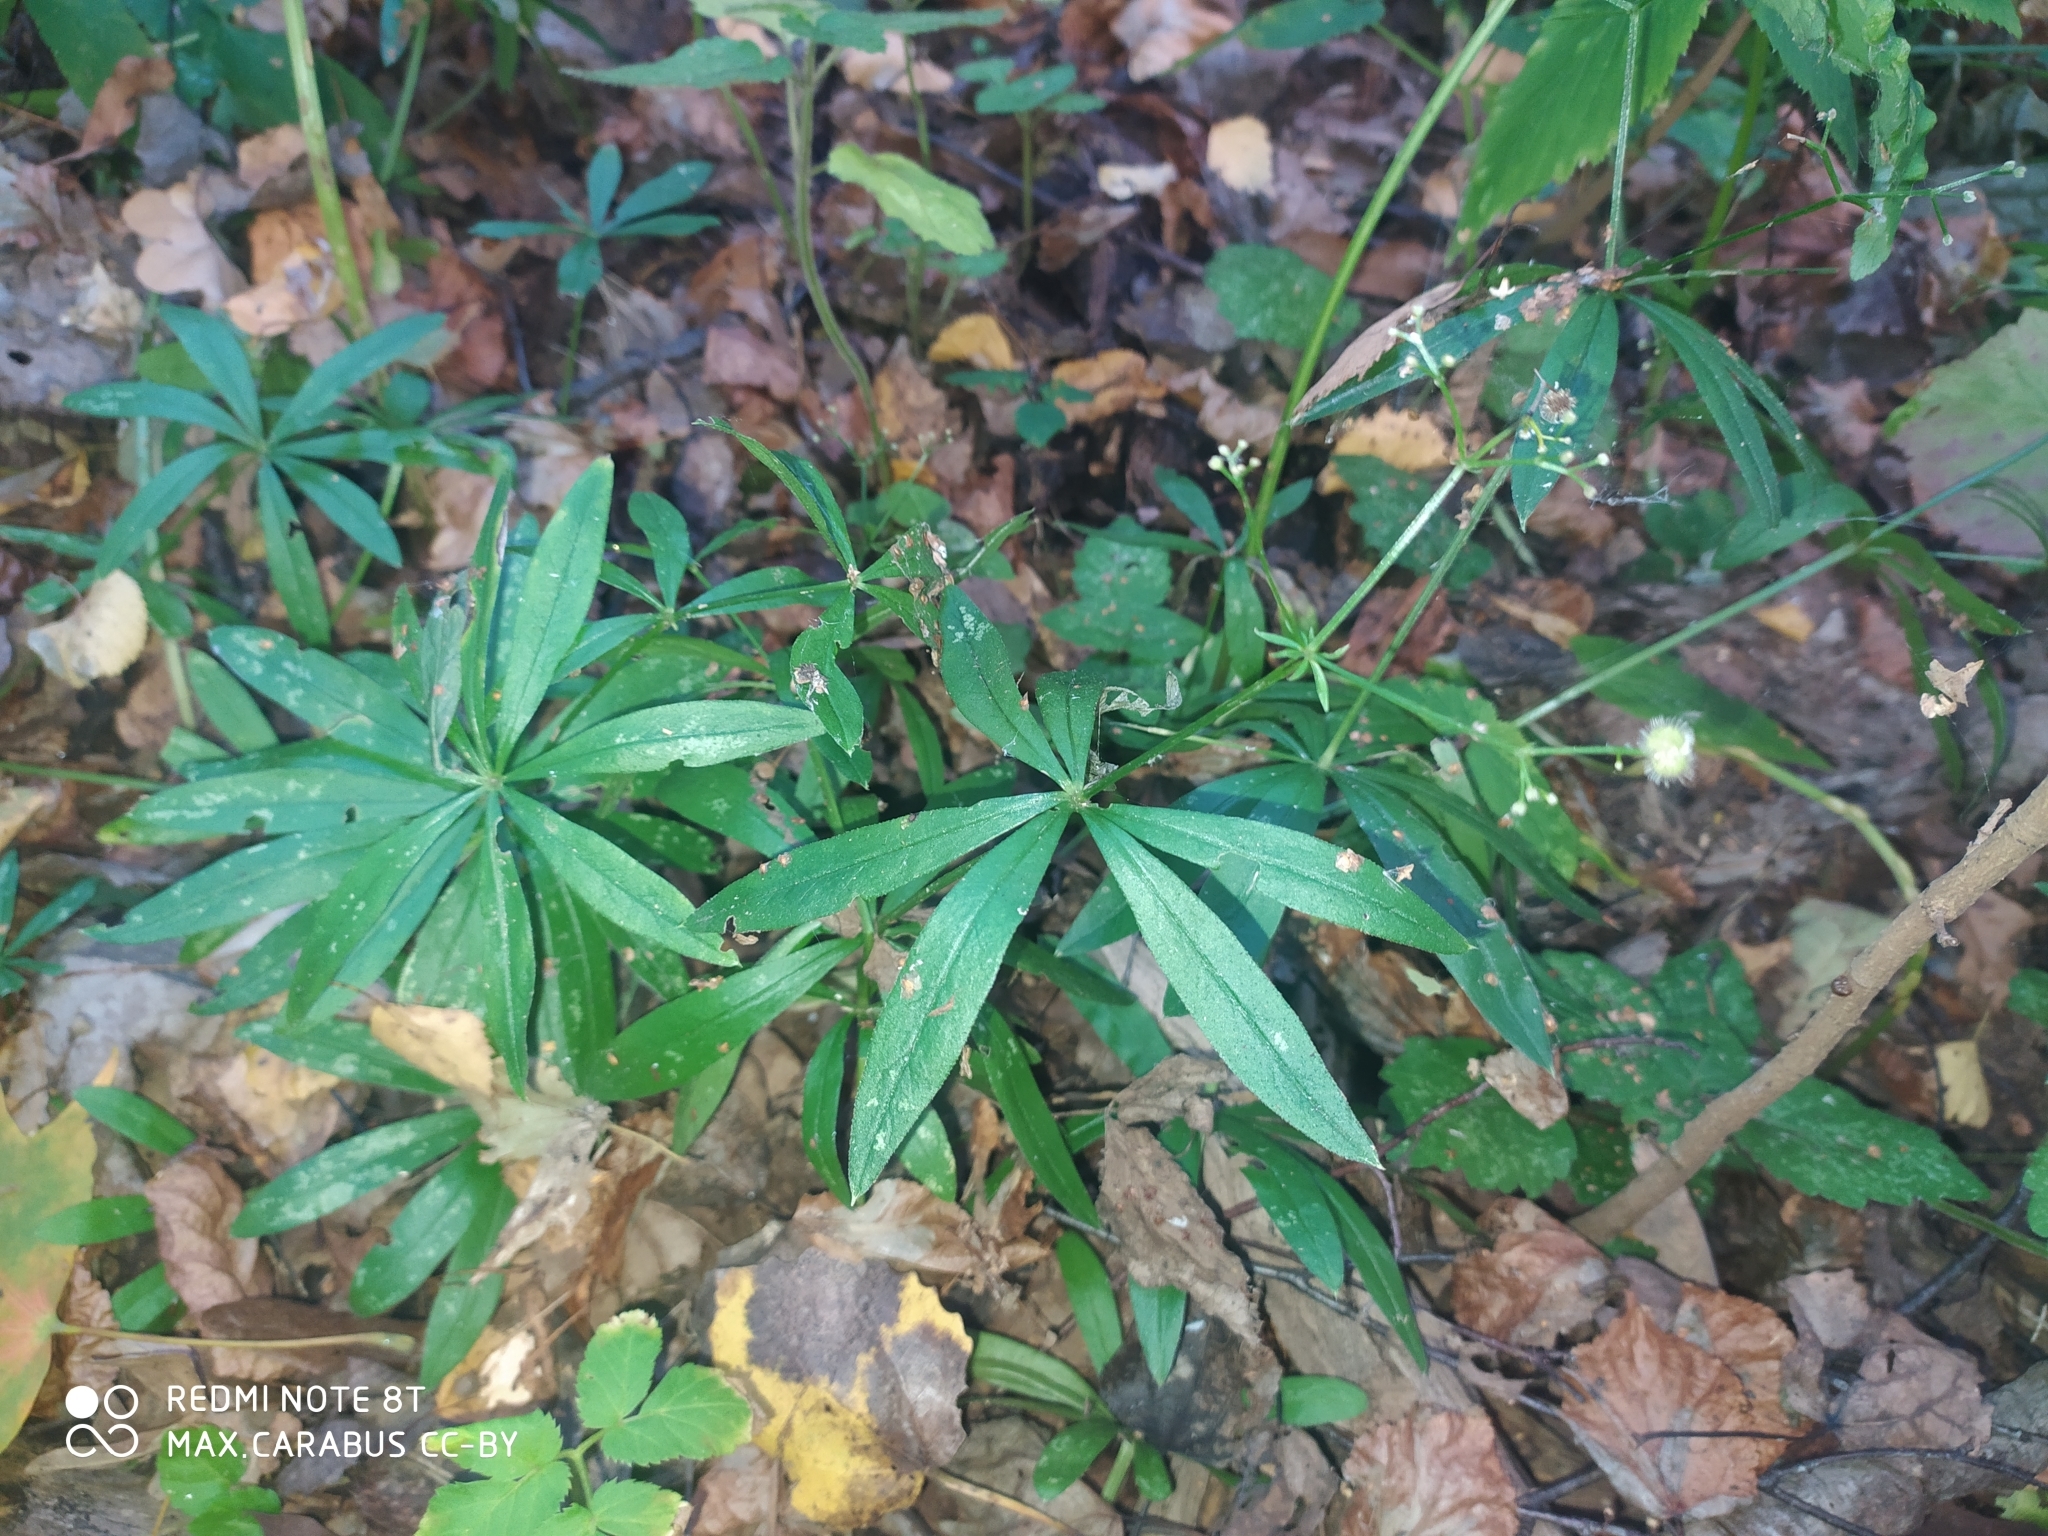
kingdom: Plantae
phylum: Tracheophyta
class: Magnoliopsida
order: Gentianales
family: Rubiaceae
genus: Galium
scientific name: Galium odoratum
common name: Sweet woodruff
